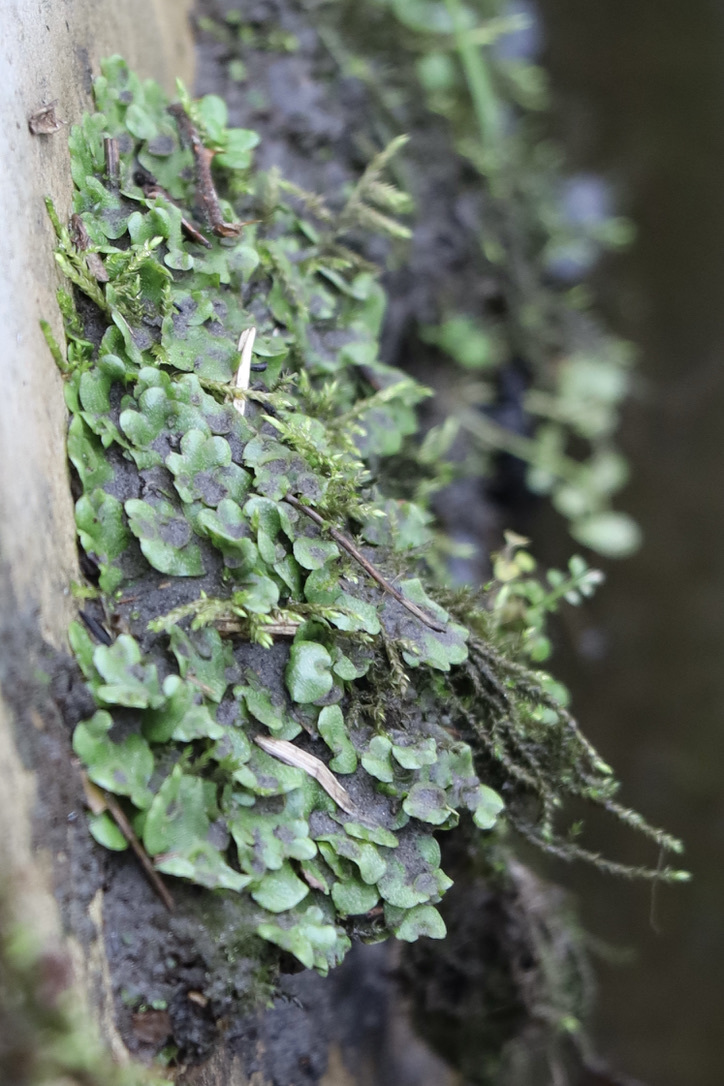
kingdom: Plantae
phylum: Marchantiophyta
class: Marchantiopsida
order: Lunulariales
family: Lunulariaceae
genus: Lunularia
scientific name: Lunularia cruciata
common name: Crescent-cup liverwort
